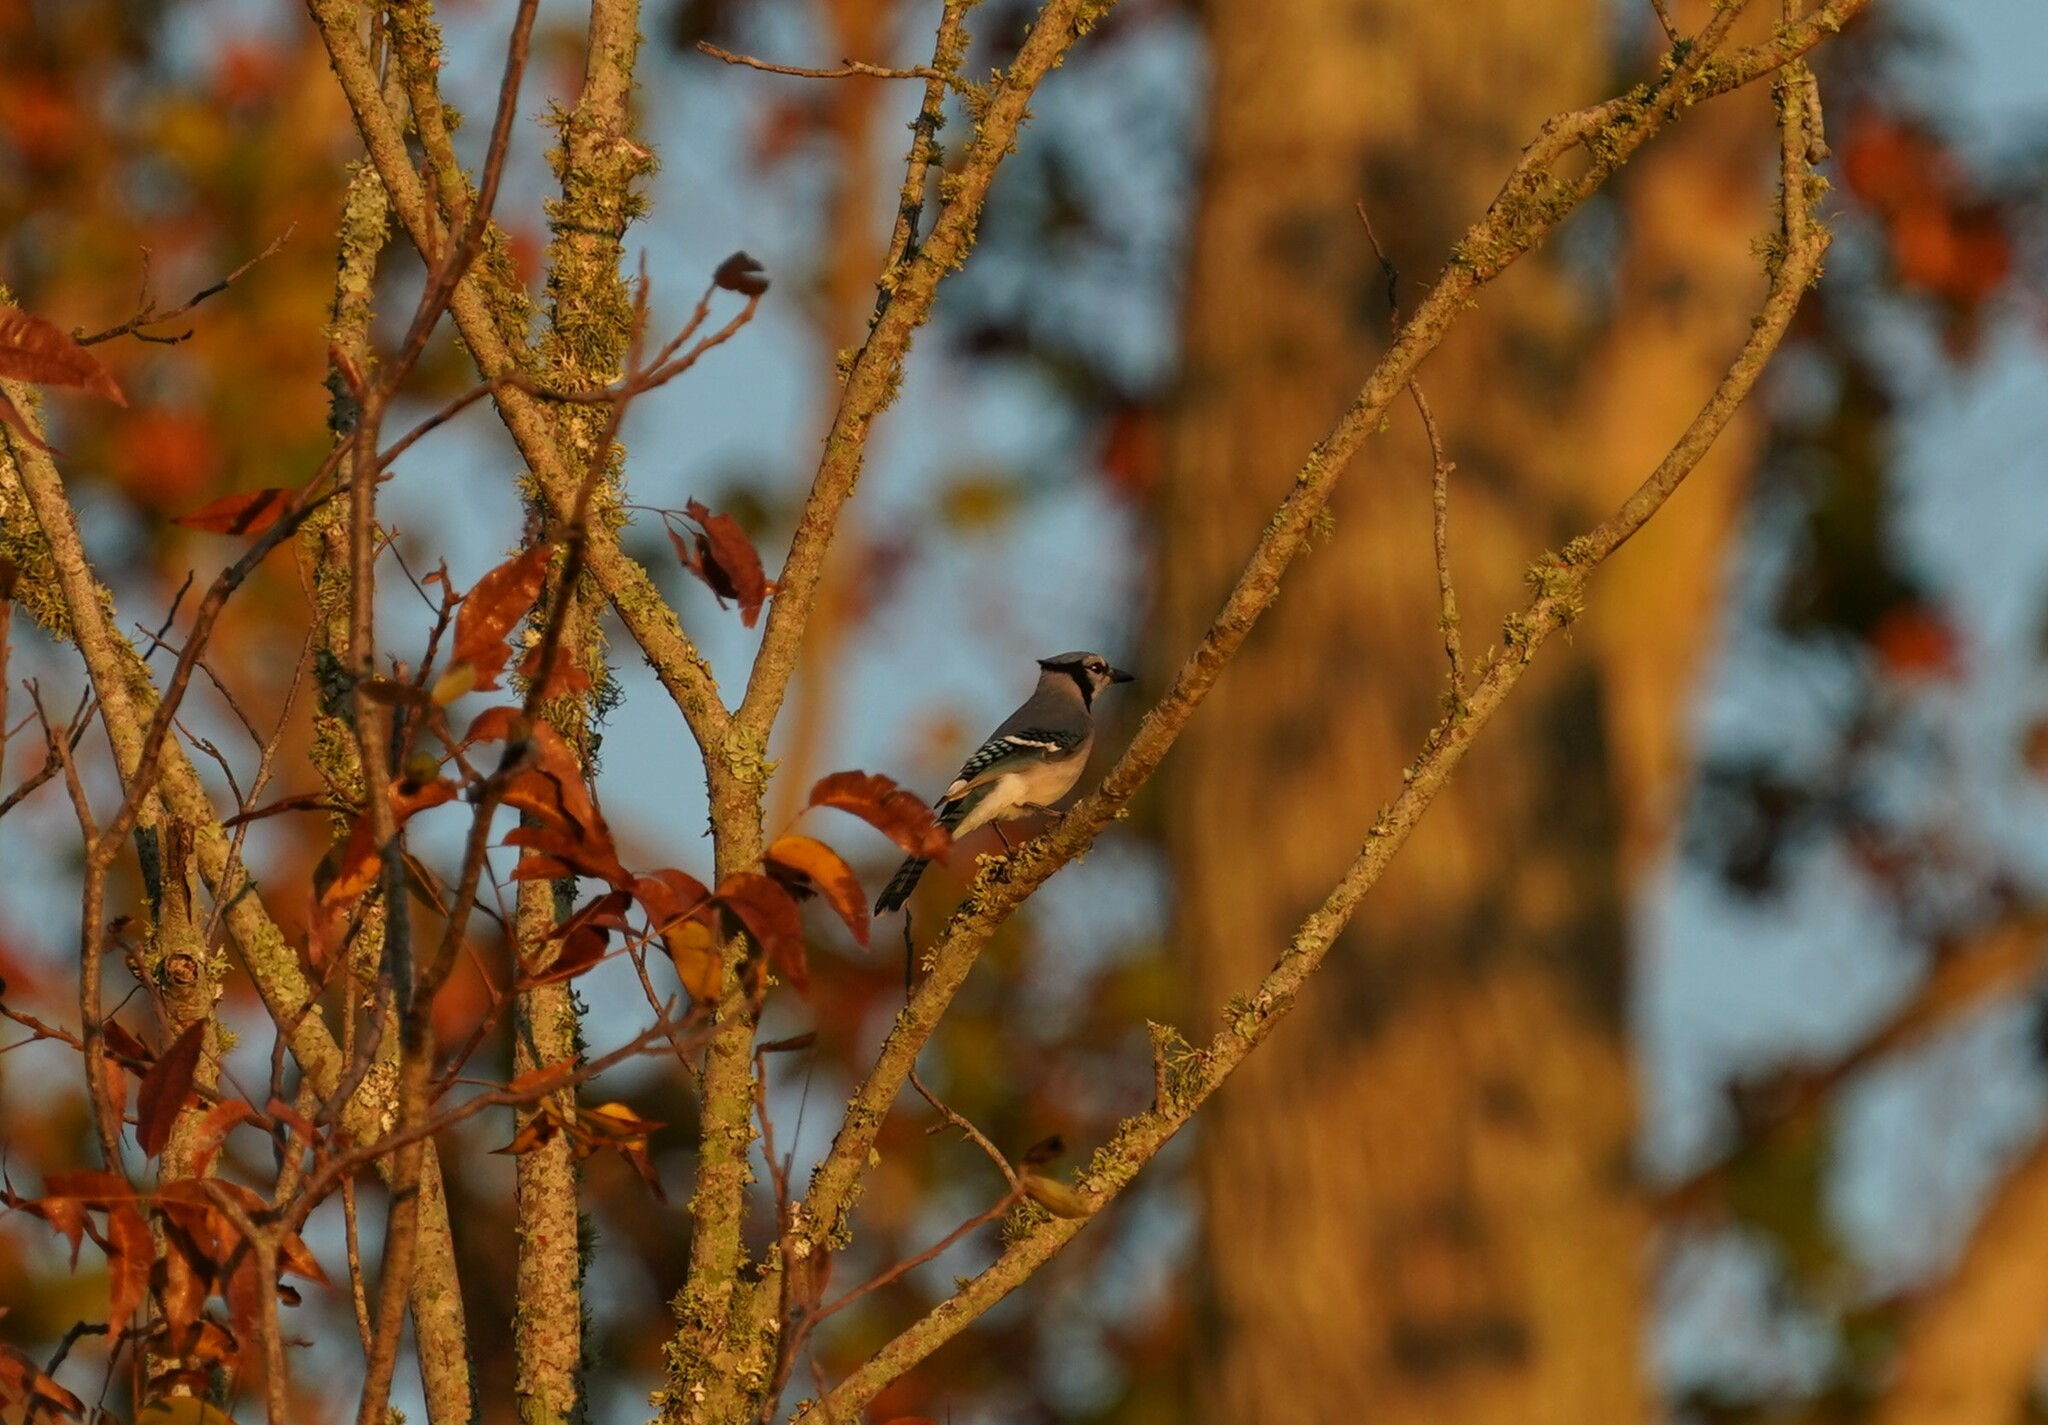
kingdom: Animalia
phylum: Chordata
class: Aves
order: Passeriformes
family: Corvidae
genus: Cyanocitta
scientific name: Cyanocitta cristata
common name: Blue jay
